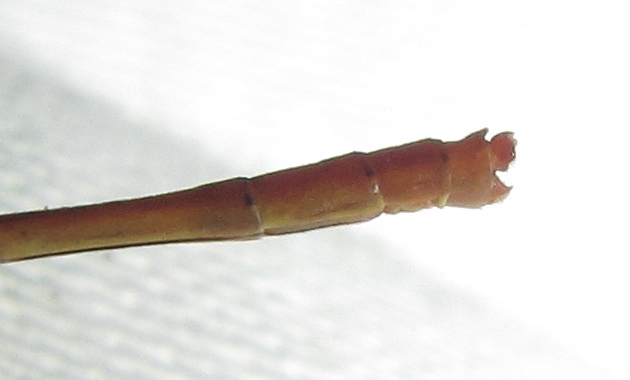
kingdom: Animalia
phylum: Arthropoda
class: Insecta
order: Odonata
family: Coenagrionidae
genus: Agriocnemis
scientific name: Agriocnemis ruberrima
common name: Orange wisp
